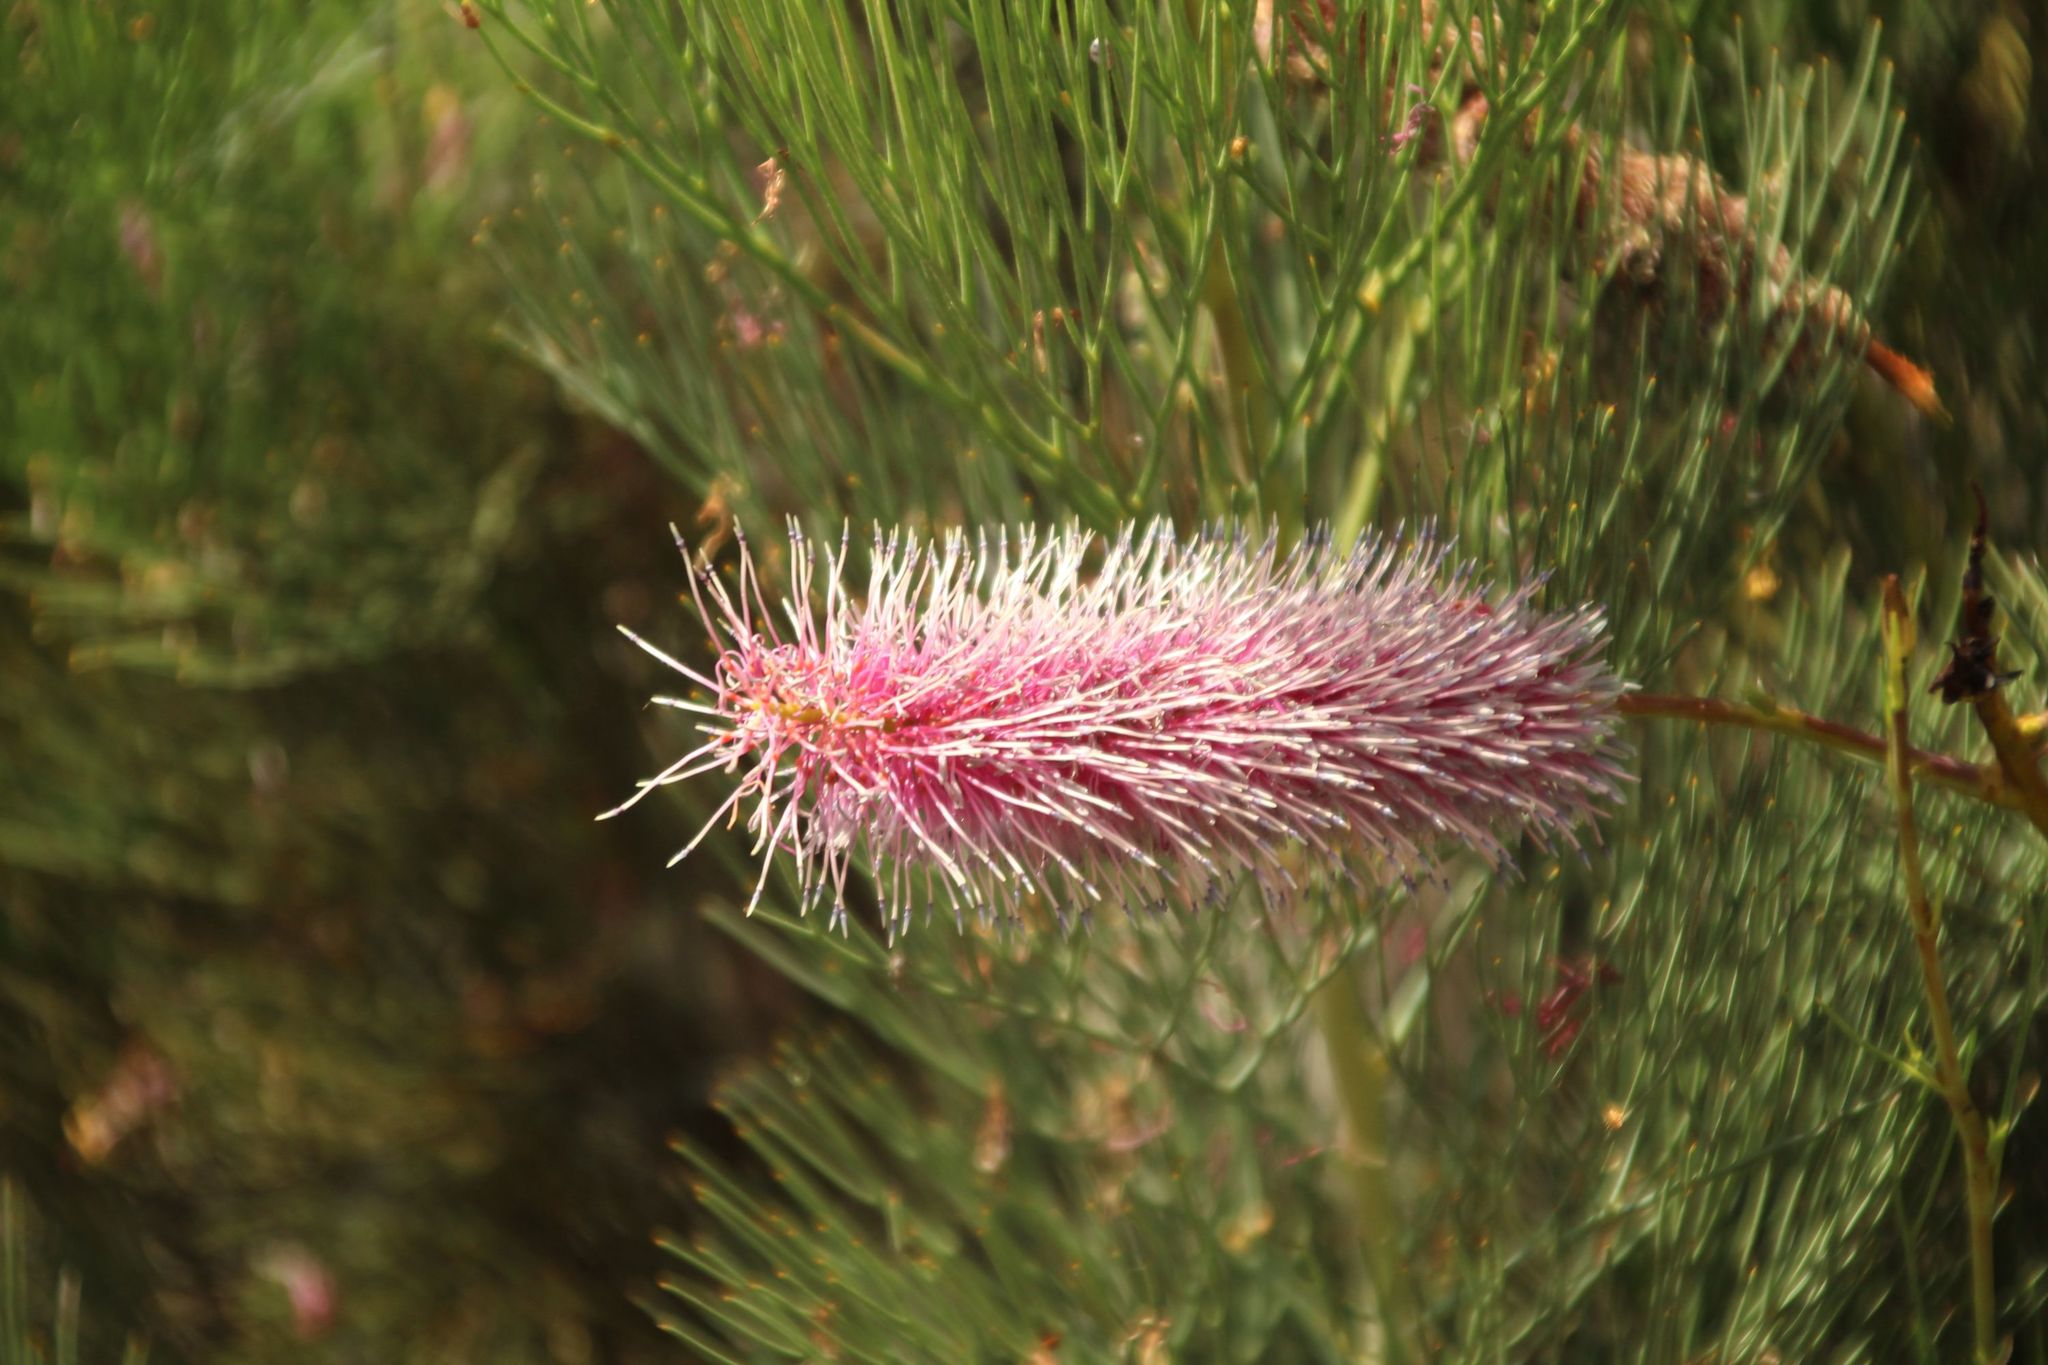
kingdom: Plantae
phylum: Tracheophyta
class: Magnoliopsida
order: Proteales
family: Proteaceae
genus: Grevillea
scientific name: Grevillea petrophiloides
